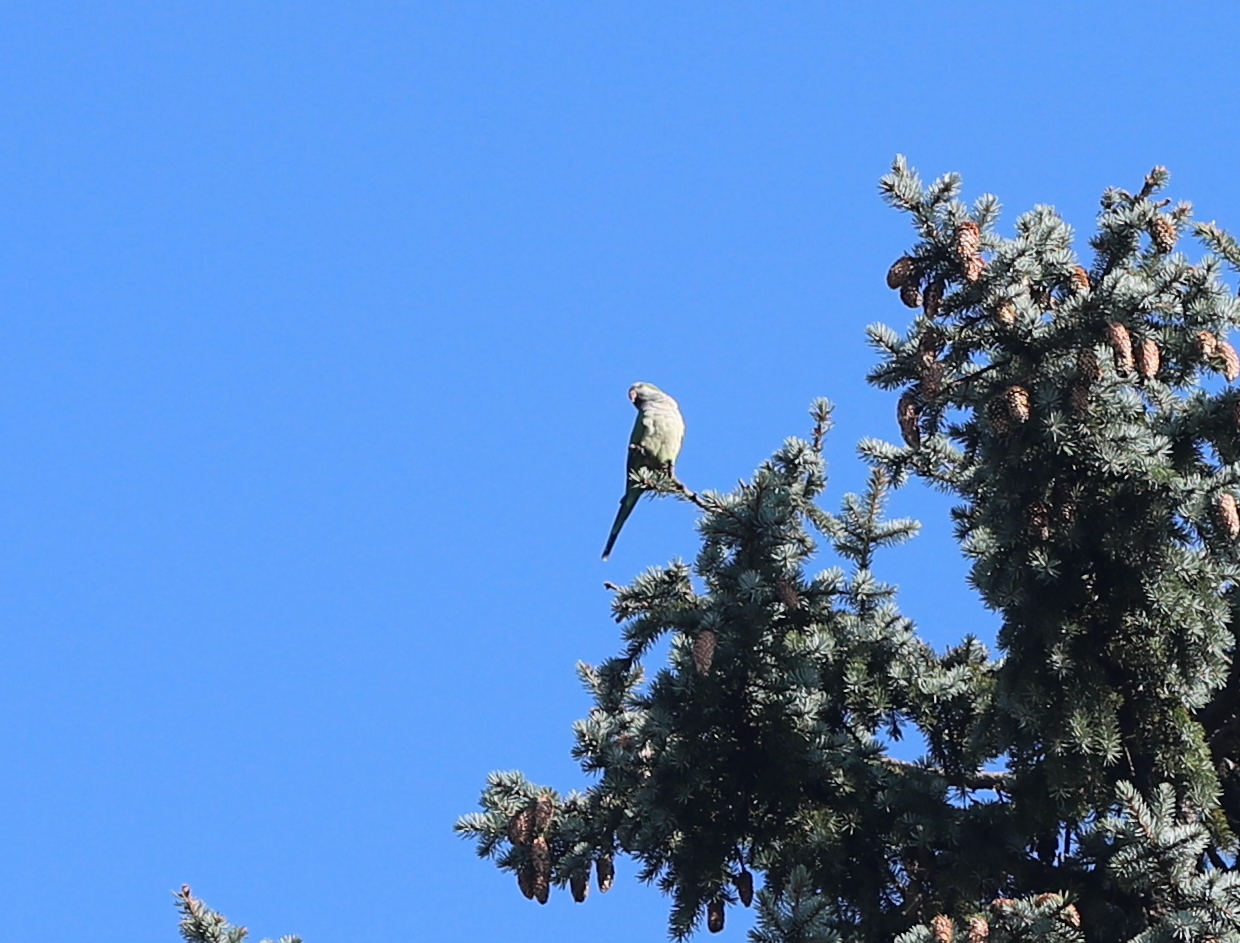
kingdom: Animalia
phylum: Chordata
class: Aves
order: Psittaciformes
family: Psittacidae
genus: Myiopsitta
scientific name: Myiopsitta monachus
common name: Monk parakeet
